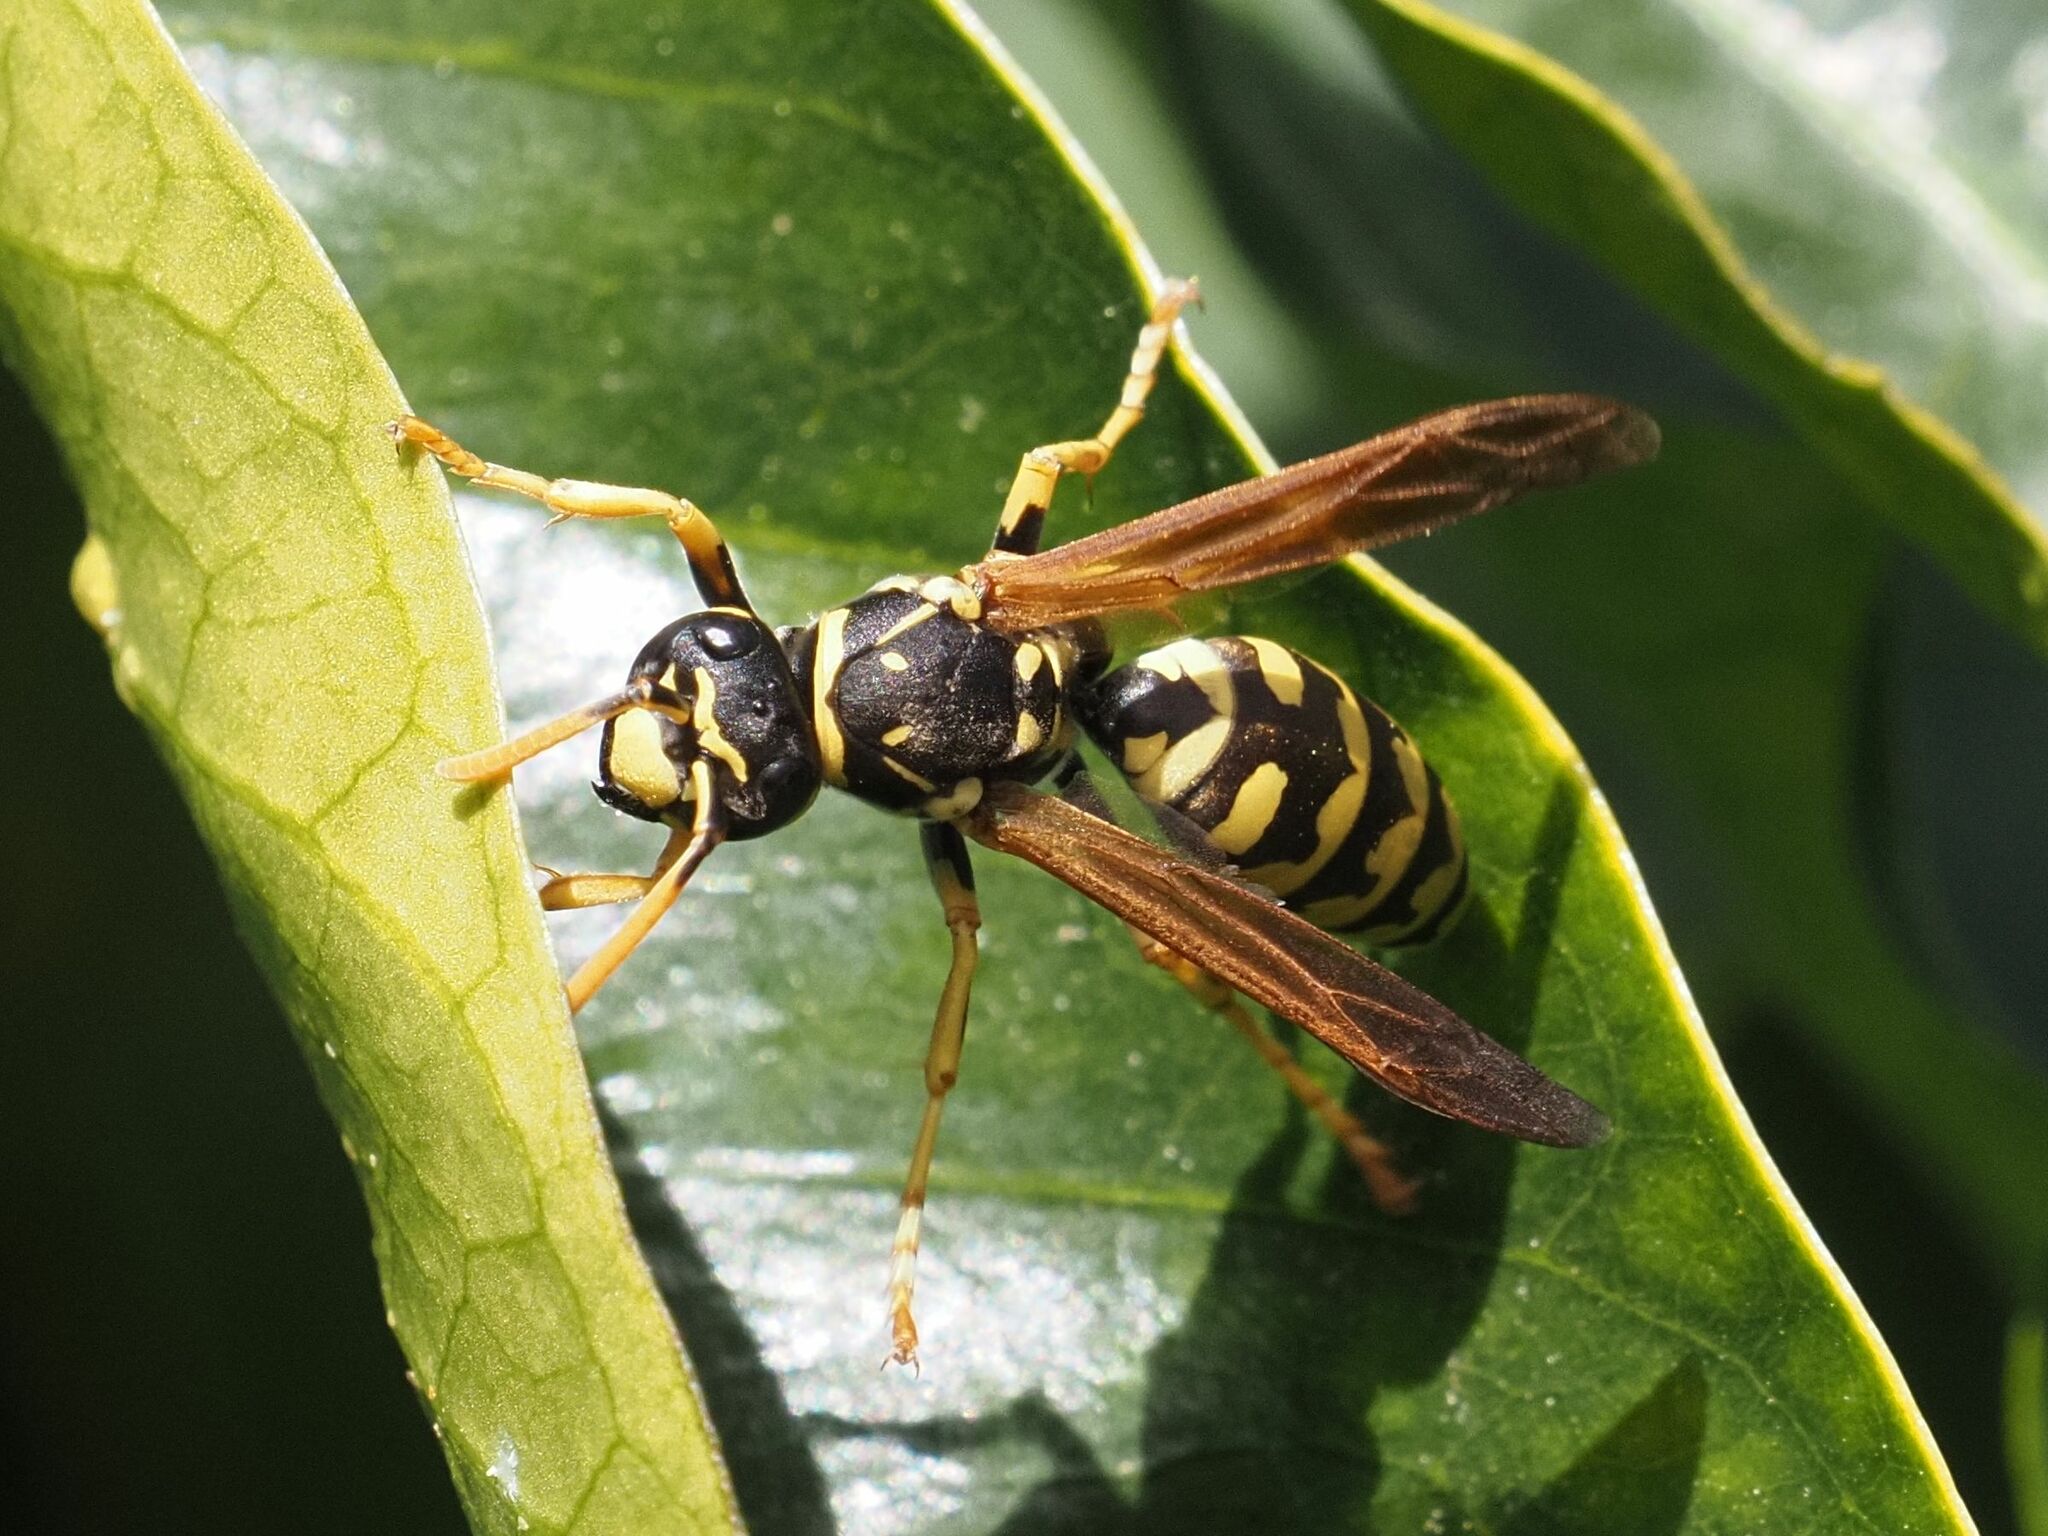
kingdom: Animalia
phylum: Arthropoda
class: Insecta
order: Hymenoptera
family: Eumenidae
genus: Polistes
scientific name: Polistes dominula
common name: Paper wasp
